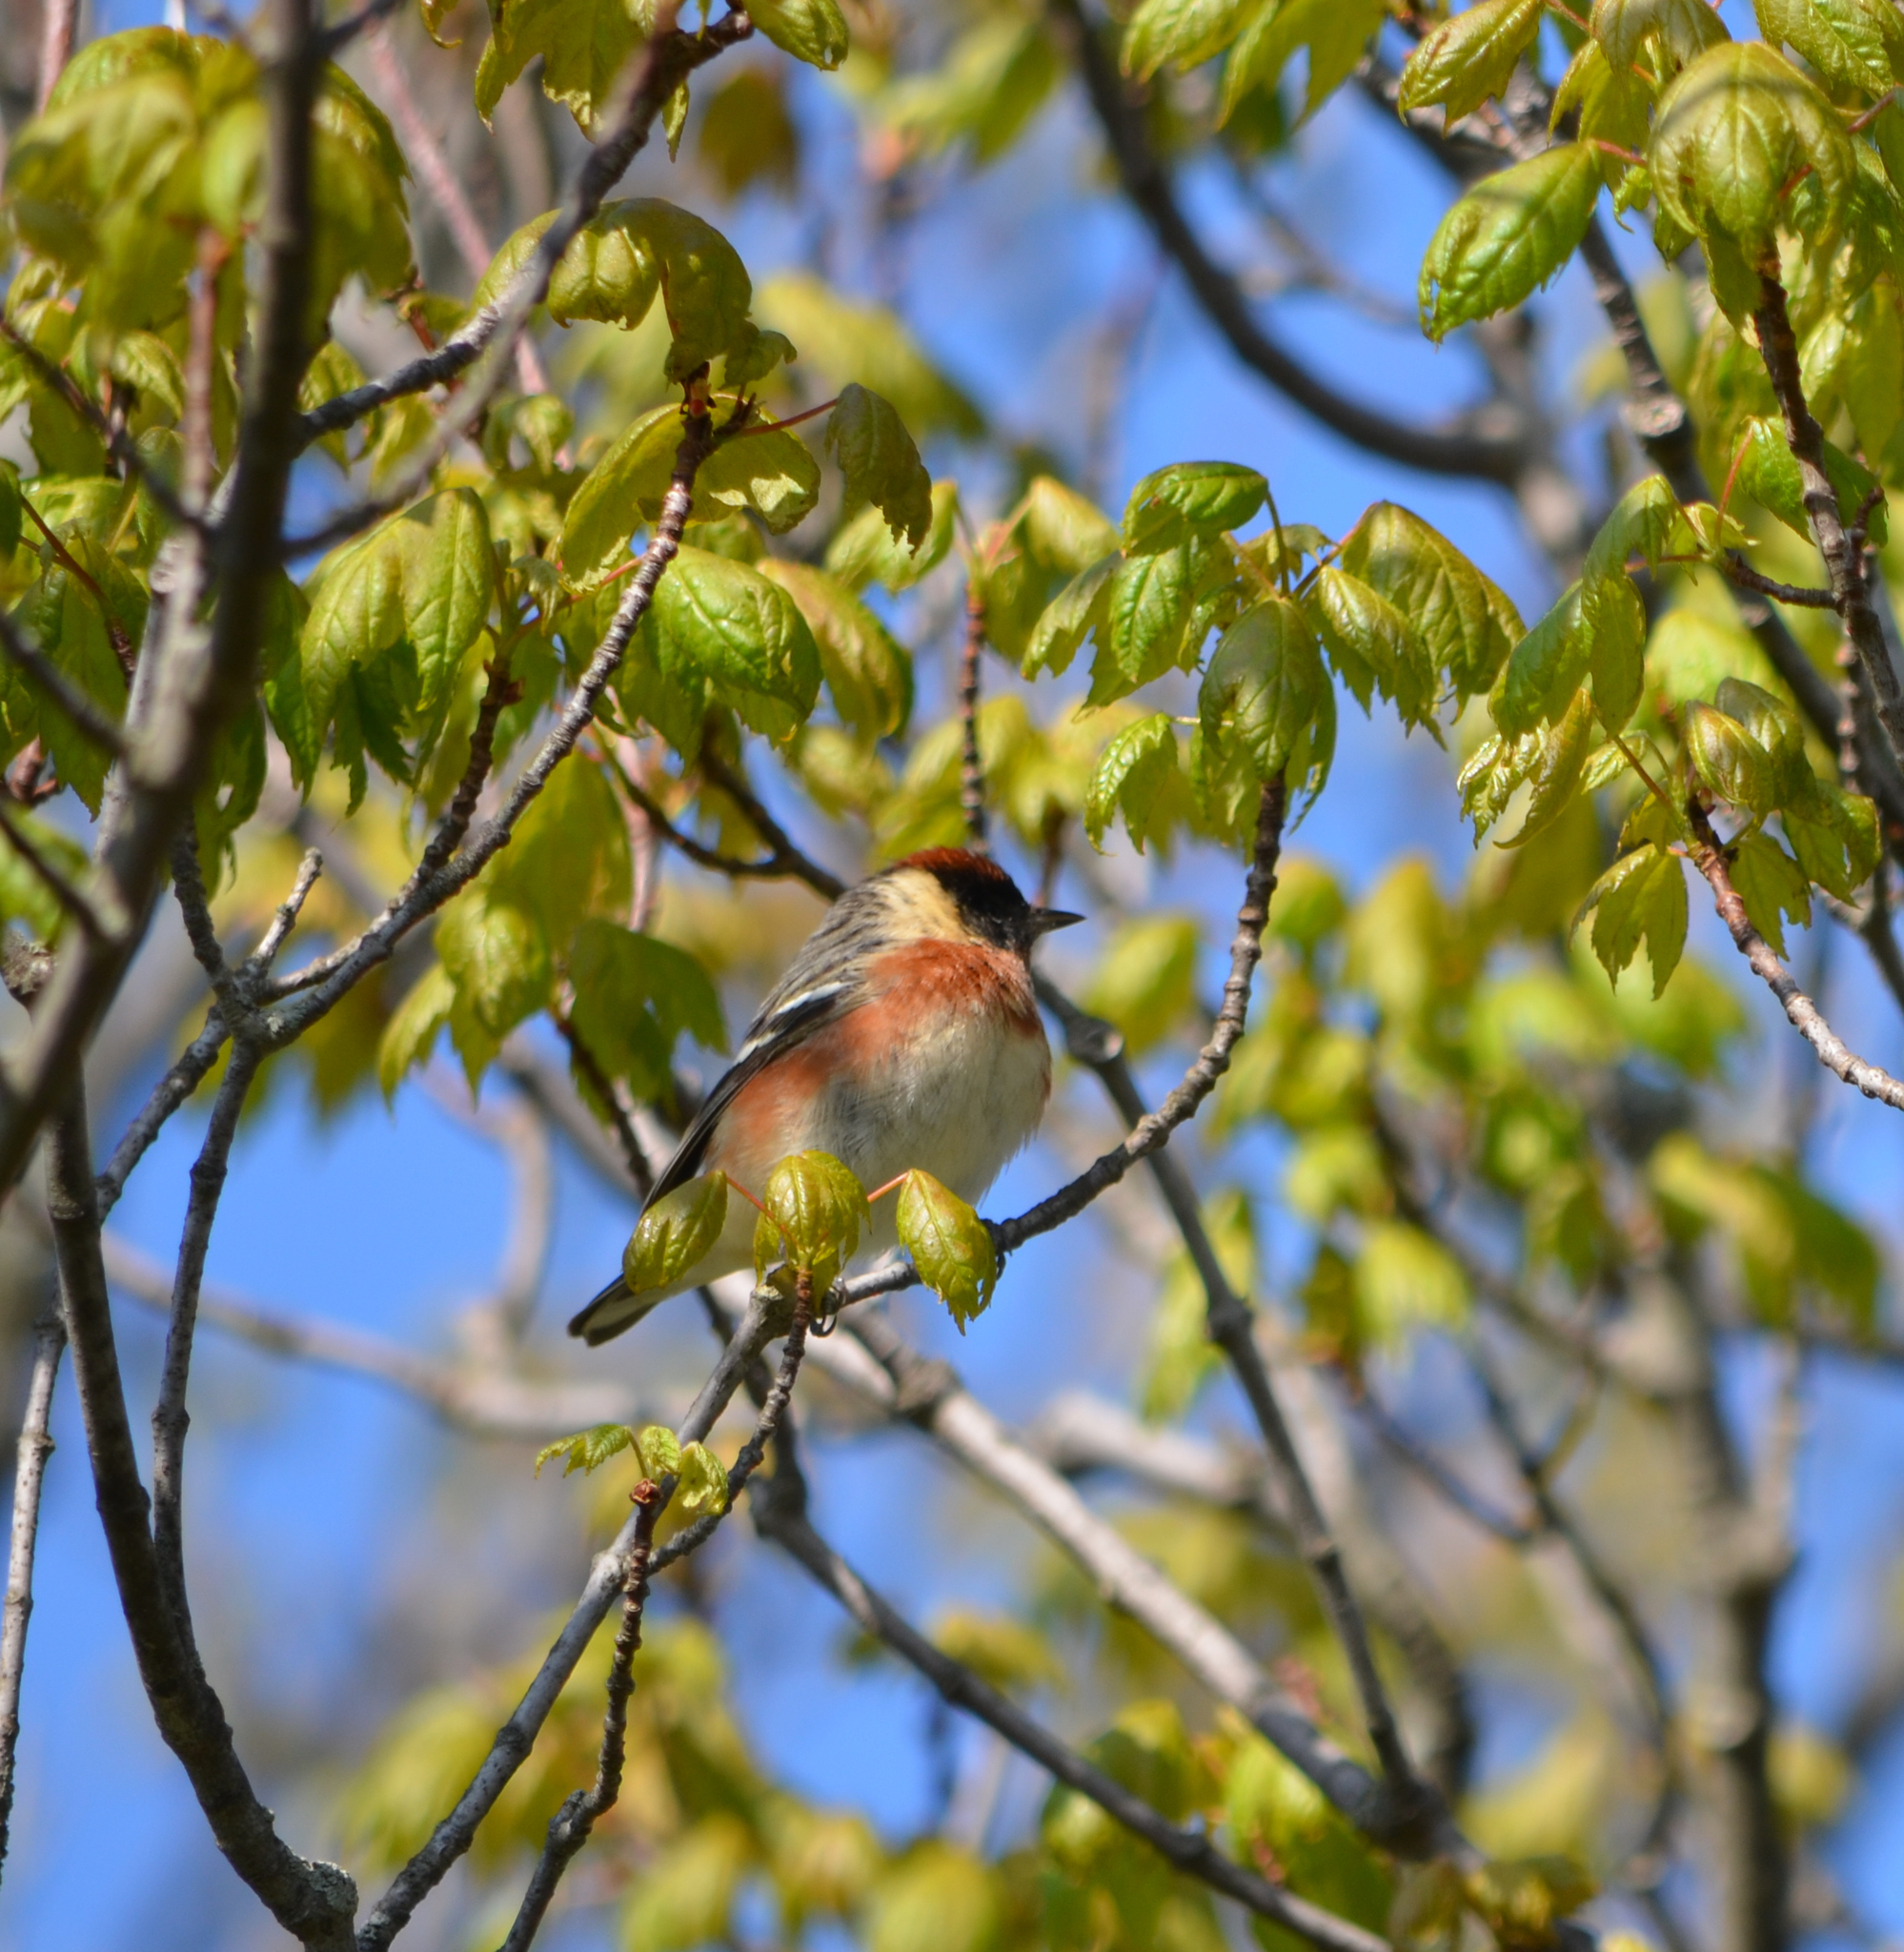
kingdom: Animalia
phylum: Chordata
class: Aves
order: Passeriformes
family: Parulidae
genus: Setophaga
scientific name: Setophaga castanea
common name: Bay-breasted warbler
